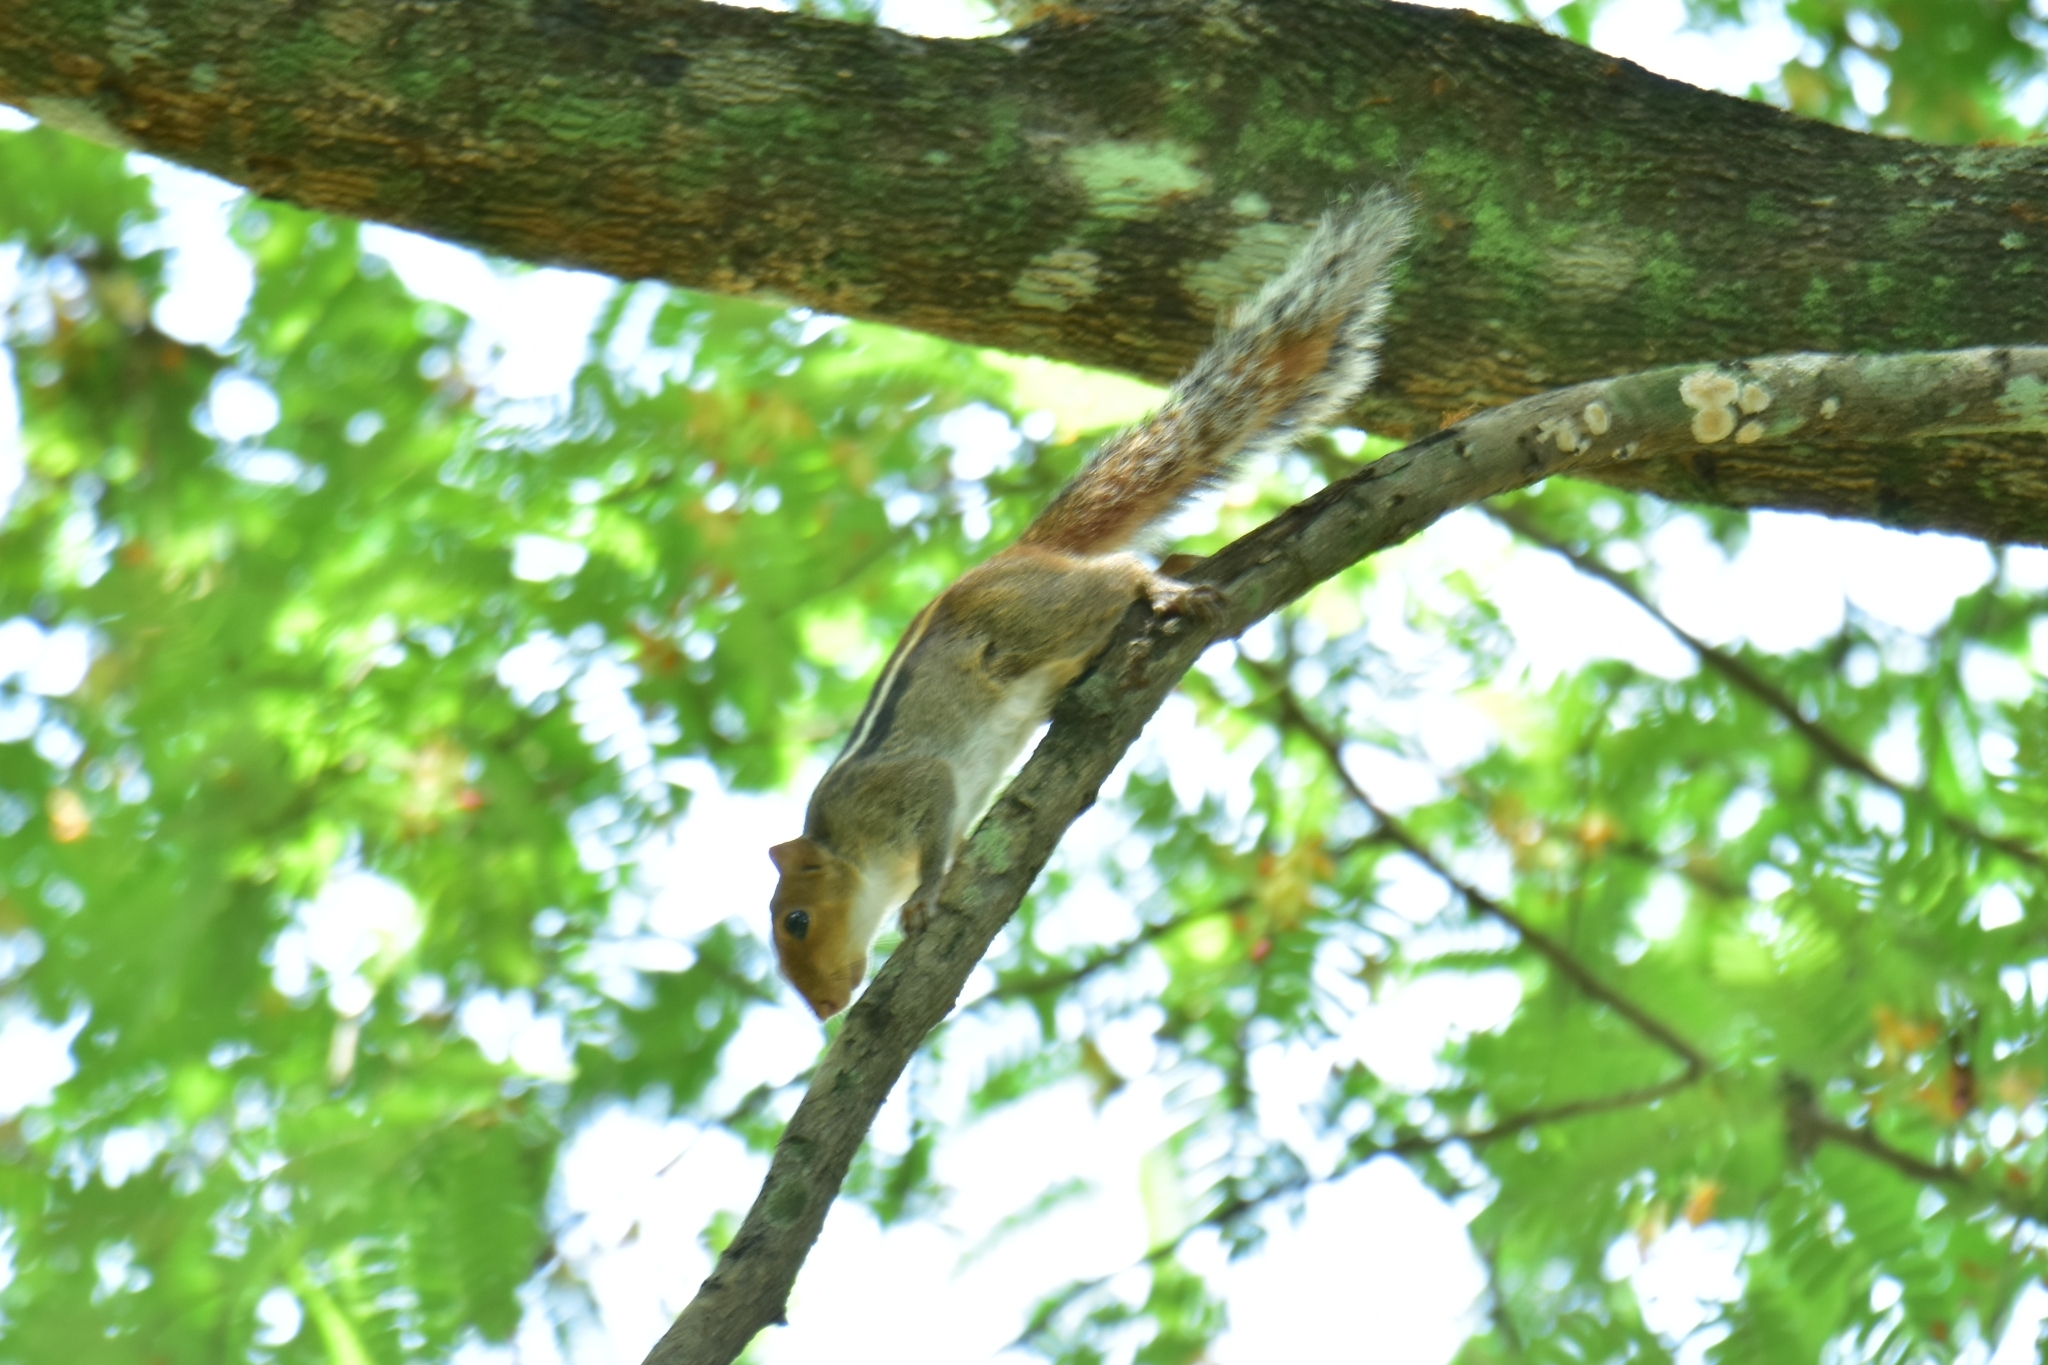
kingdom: Animalia
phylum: Chordata
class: Mammalia
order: Rodentia
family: Sciuridae
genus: Funambulus
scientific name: Funambulus tristriatus
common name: Jungle palm squirrel
